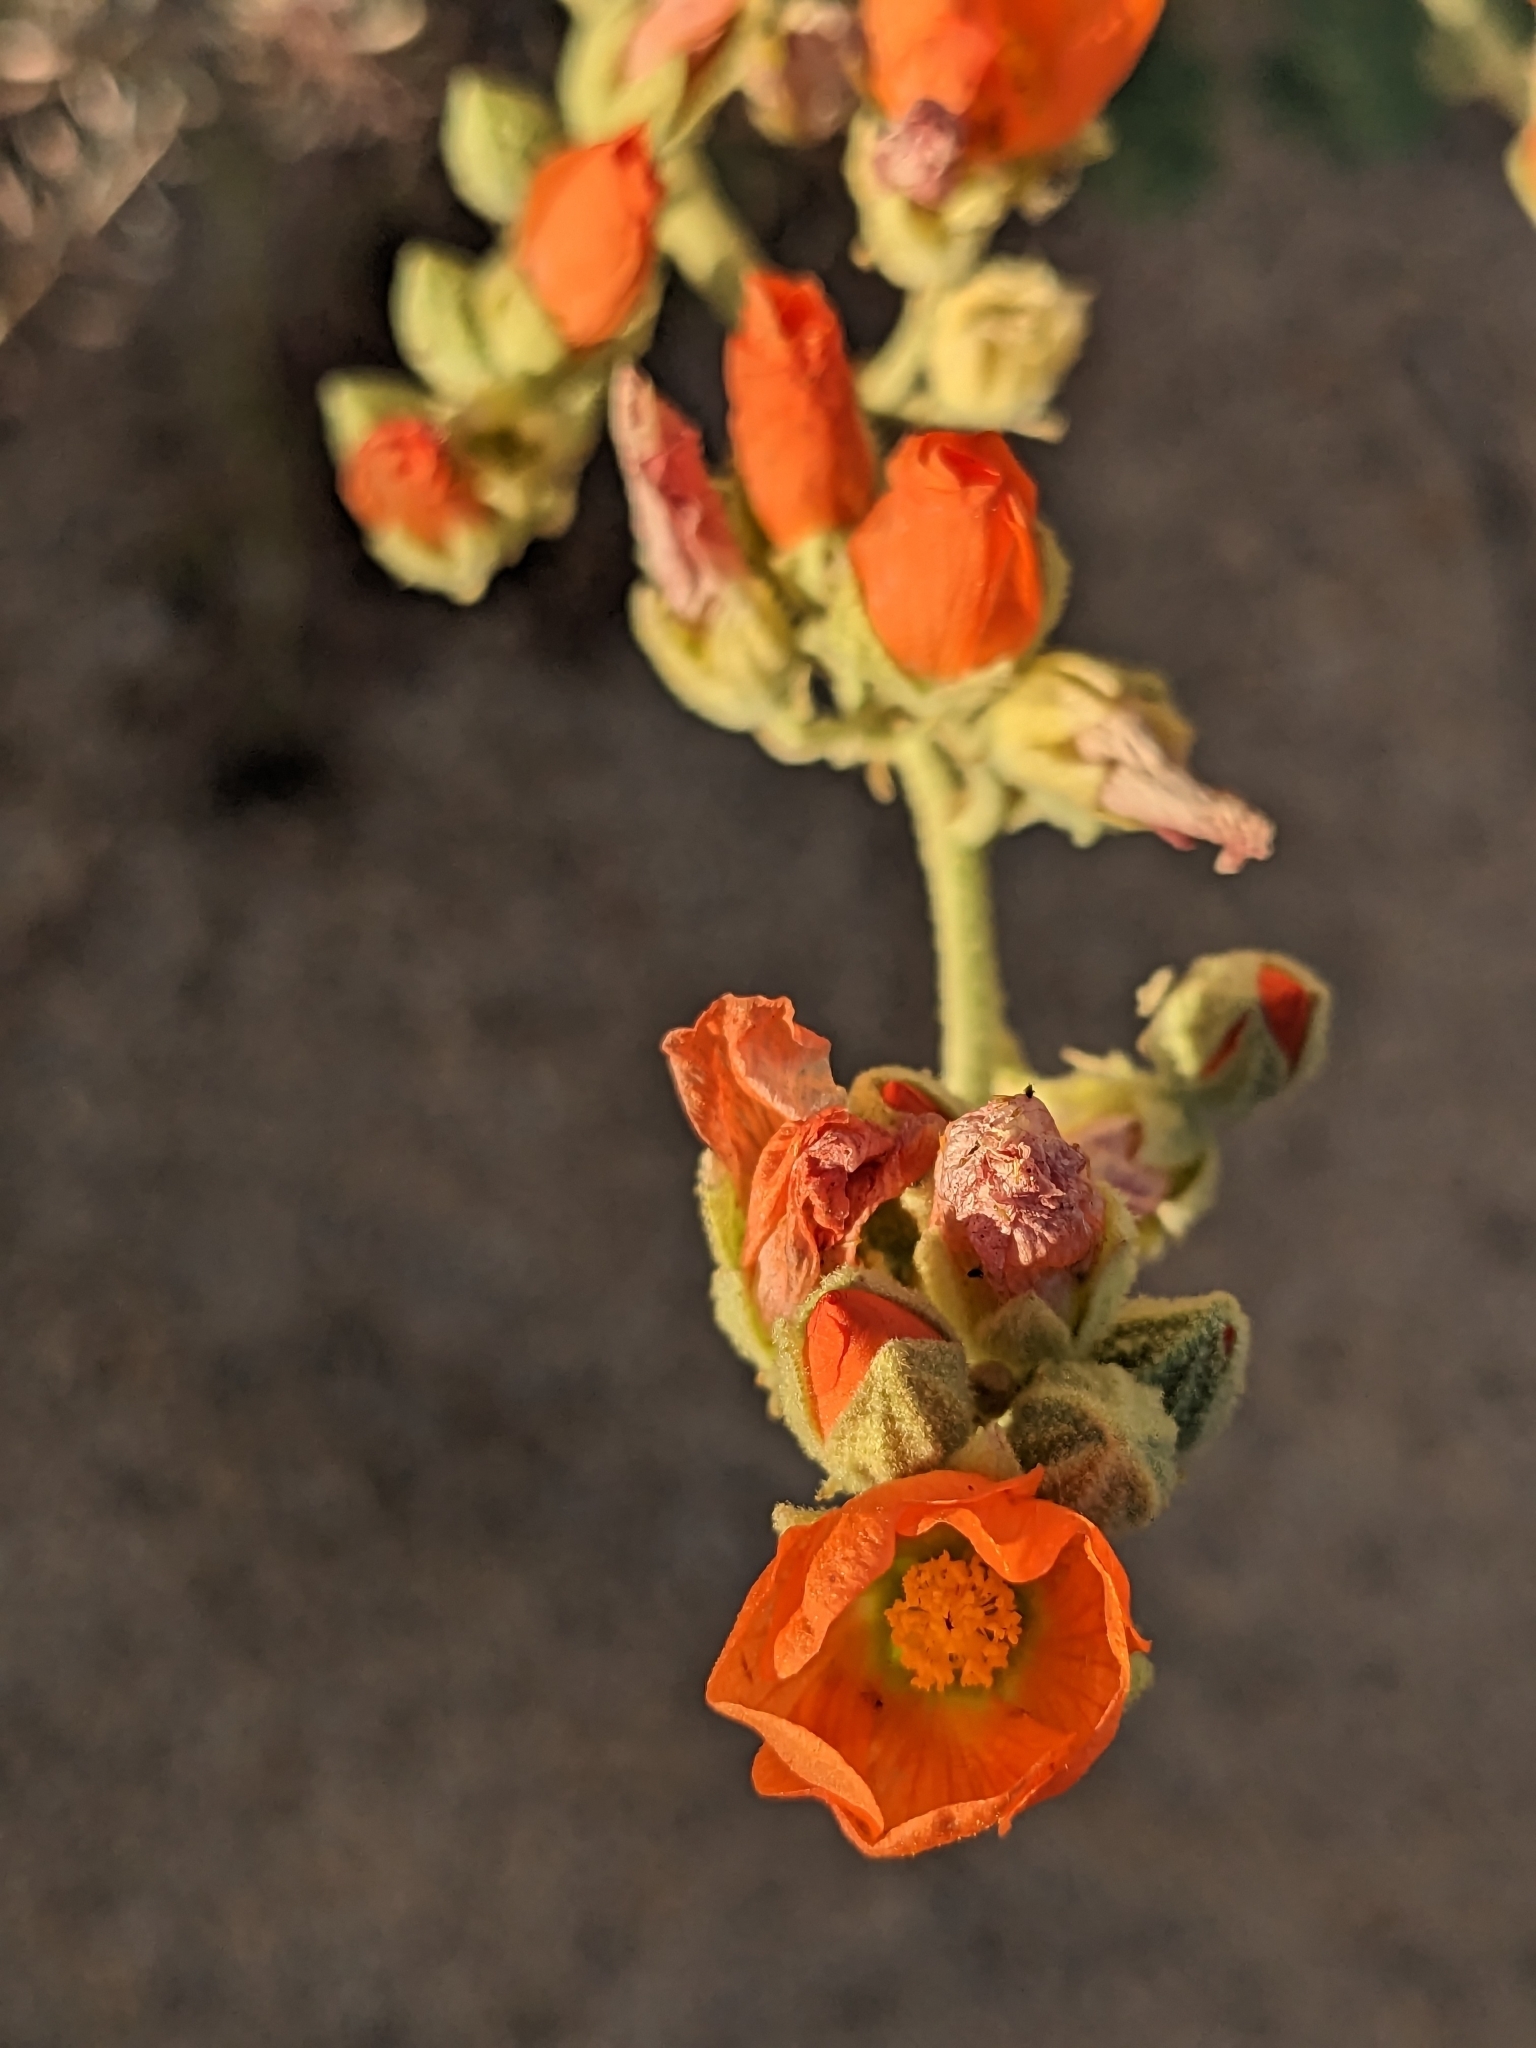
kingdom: Plantae
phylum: Tracheophyta
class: Magnoliopsida
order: Malvales
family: Malvaceae
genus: Sphaeralcea
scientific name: Sphaeralcea ambigua
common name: Apricot globe-mallow
